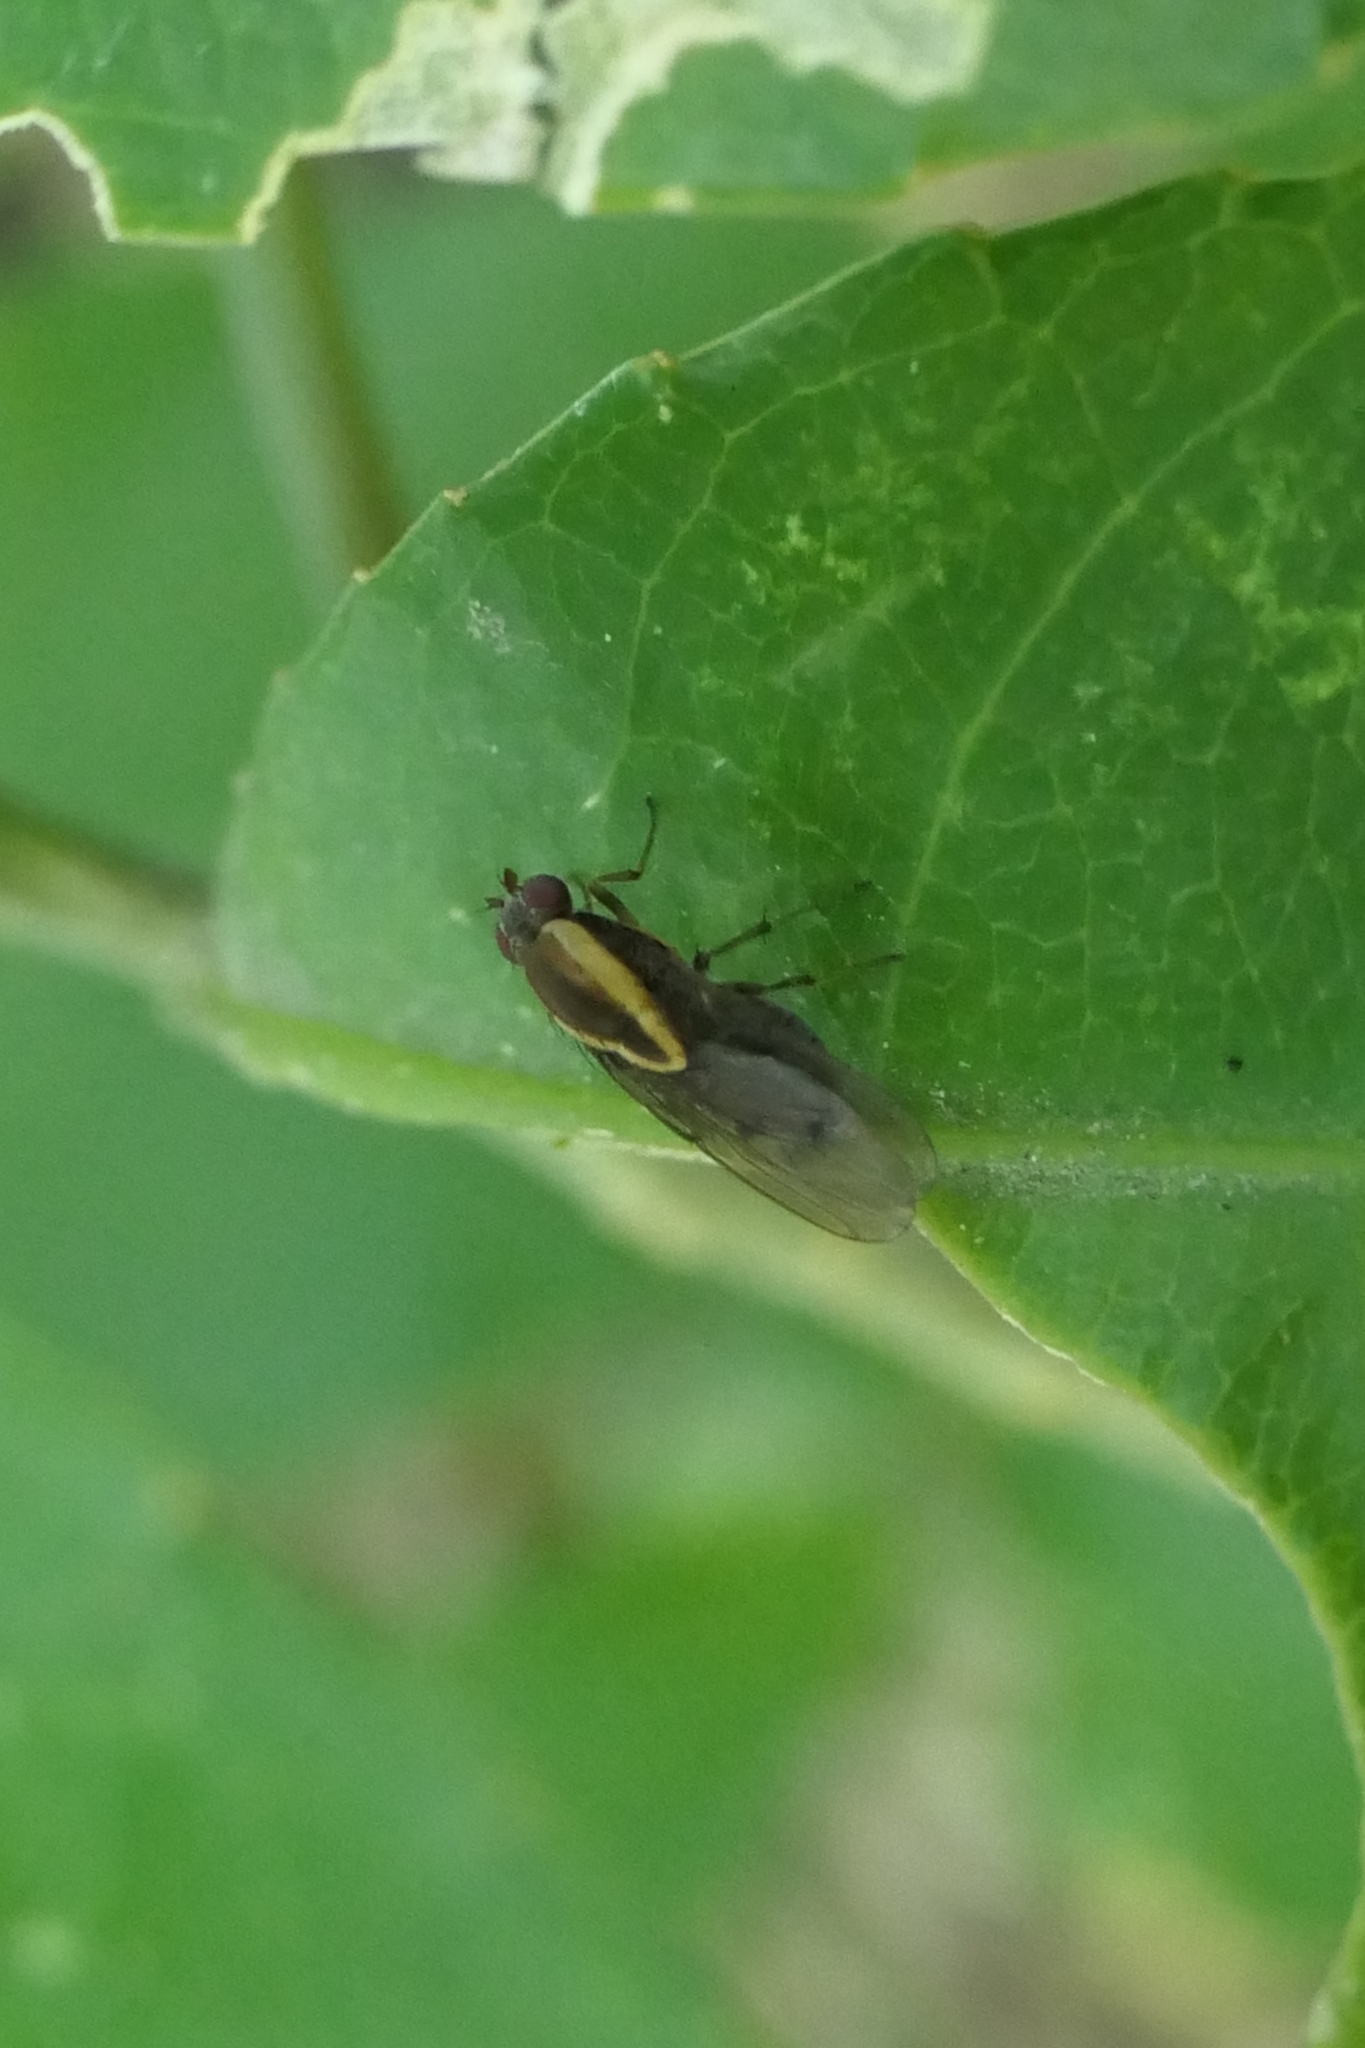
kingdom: Animalia
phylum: Arthropoda
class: Insecta
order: Diptera
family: Heleomyzidae
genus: Allophylopsis
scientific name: Allophylopsis scutellata
